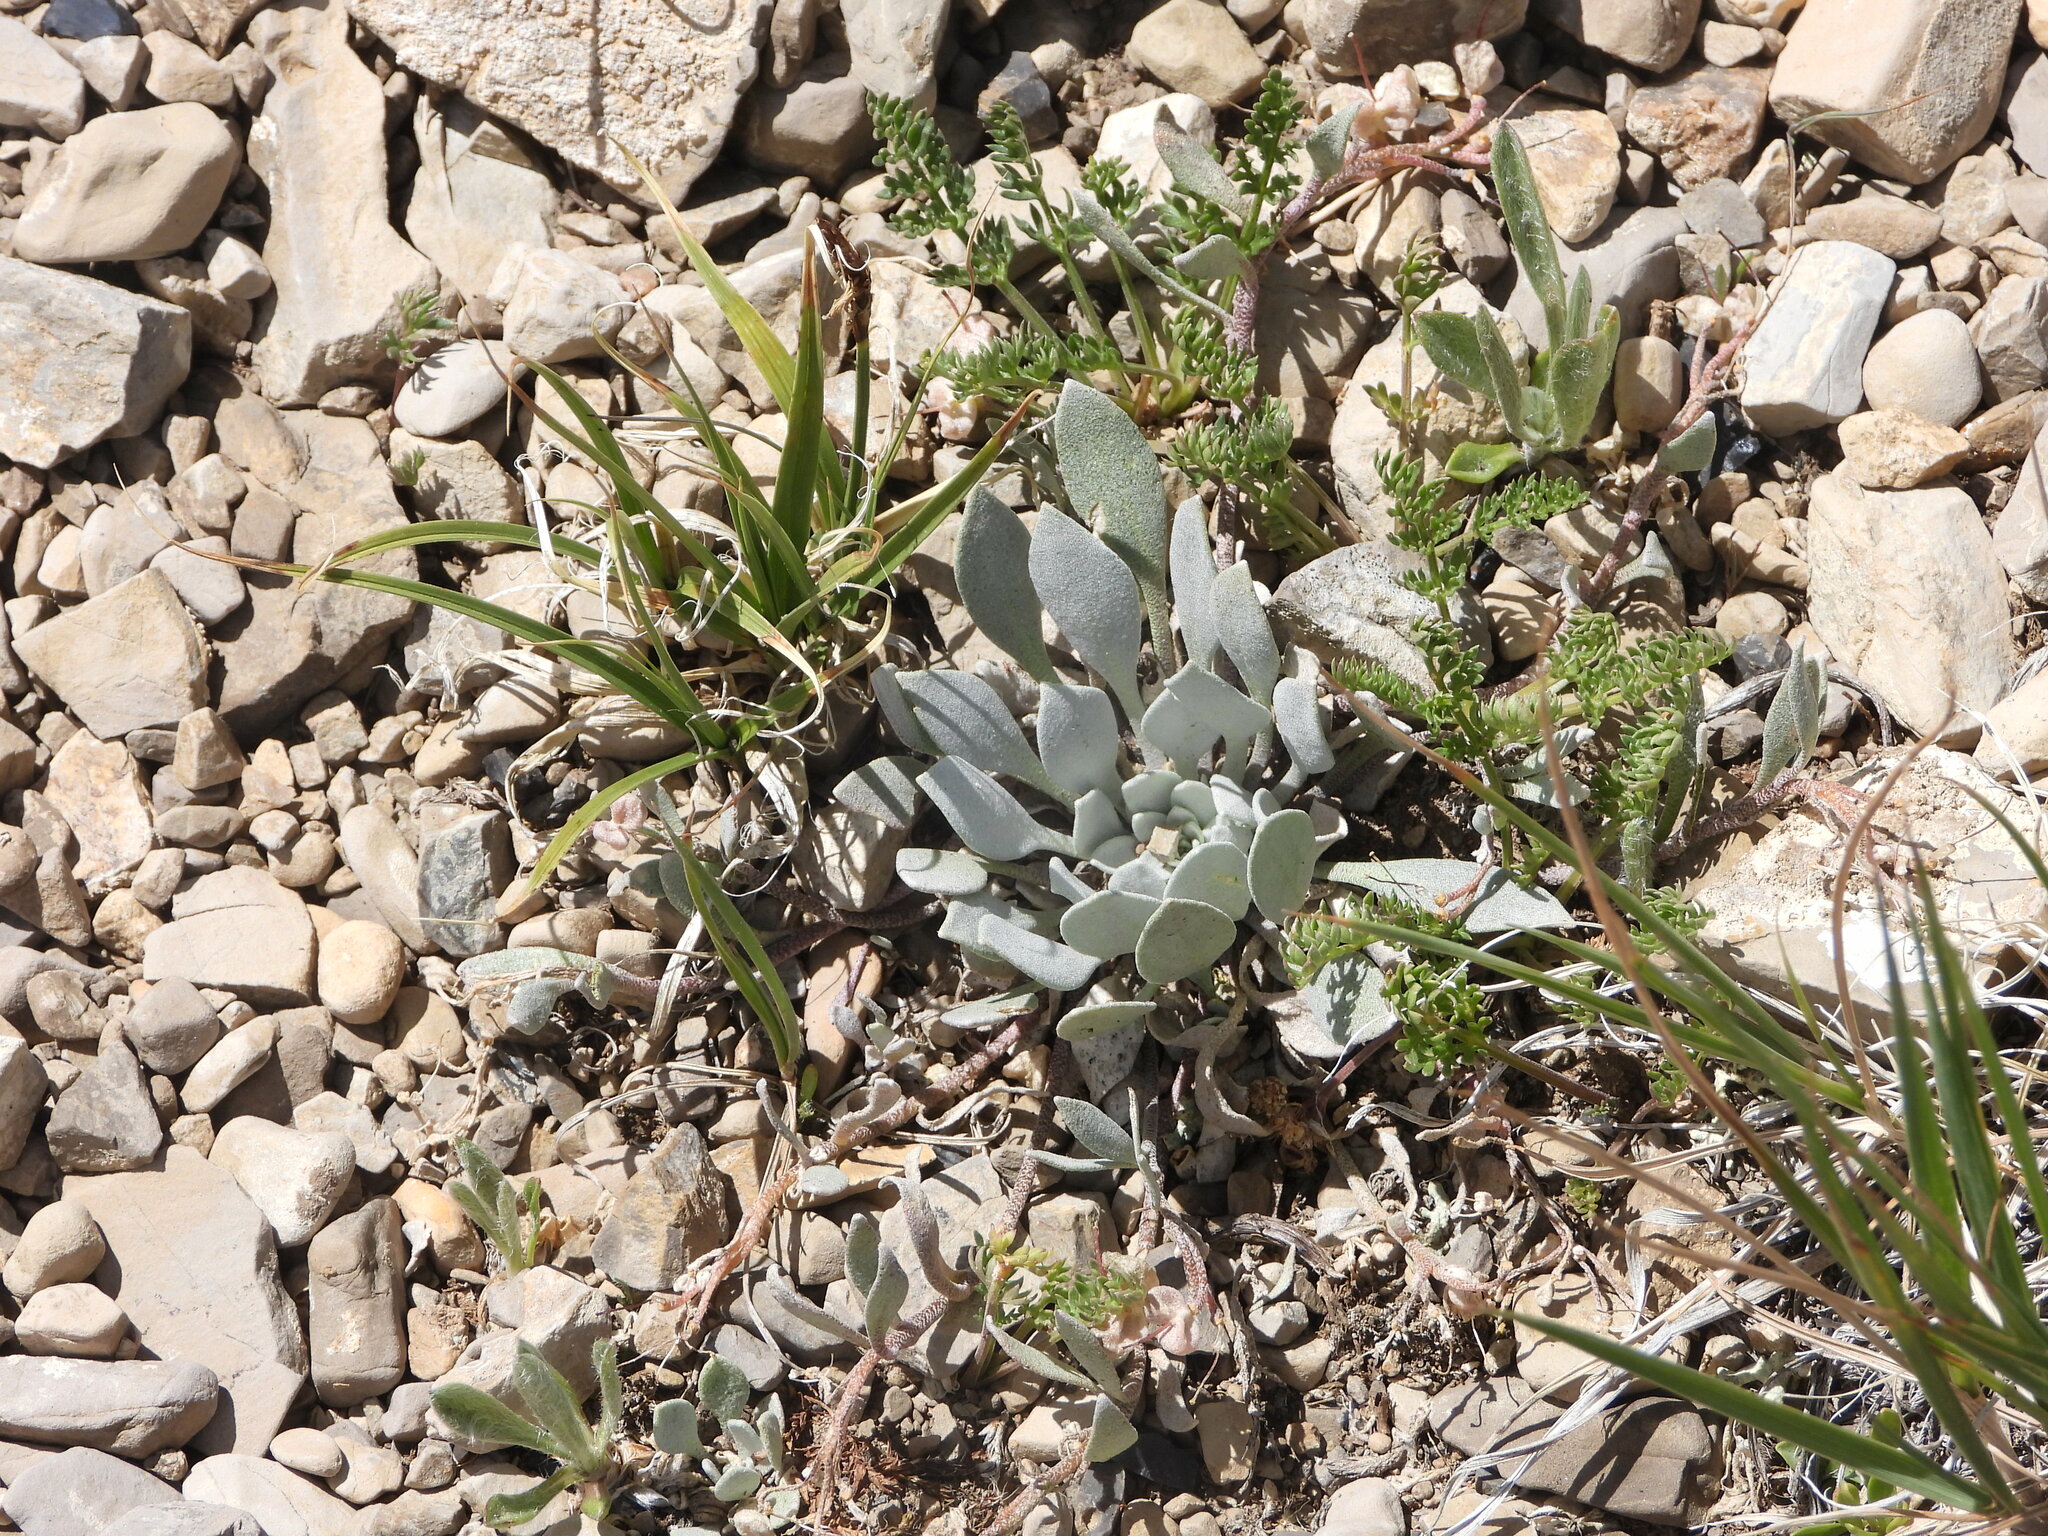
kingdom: Plantae
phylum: Tracheophyta
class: Magnoliopsida
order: Brassicales
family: Brassicaceae
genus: Physaria
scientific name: Physaria alpina
